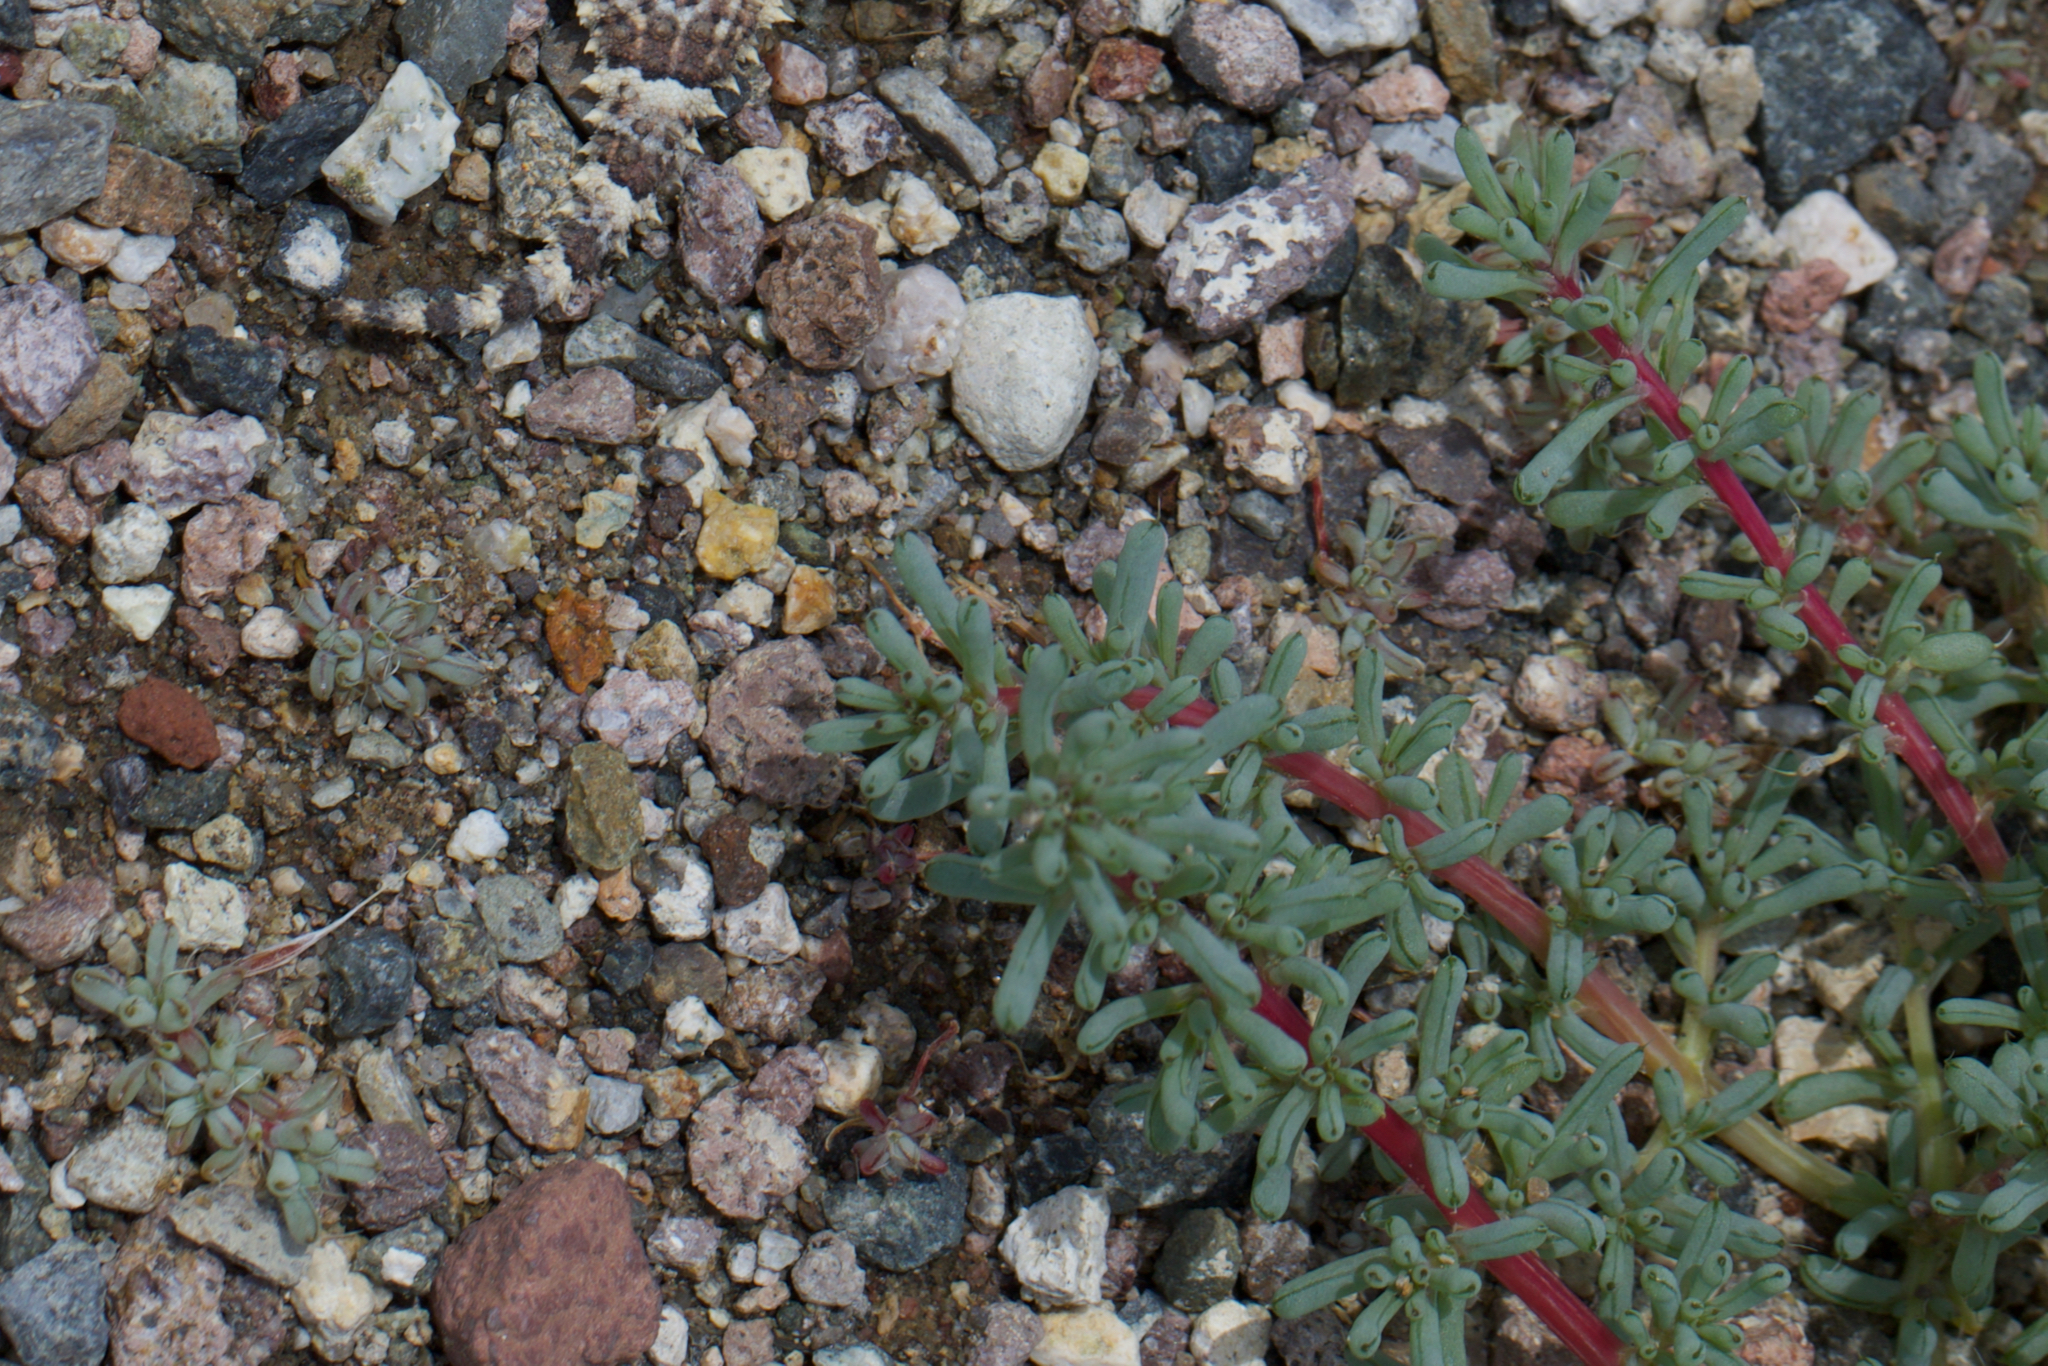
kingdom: Plantae
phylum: Tracheophyta
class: Magnoliopsida
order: Caryophyllales
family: Amaranthaceae
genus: Halogeton
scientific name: Halogeton glomeratus
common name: Saltlover
